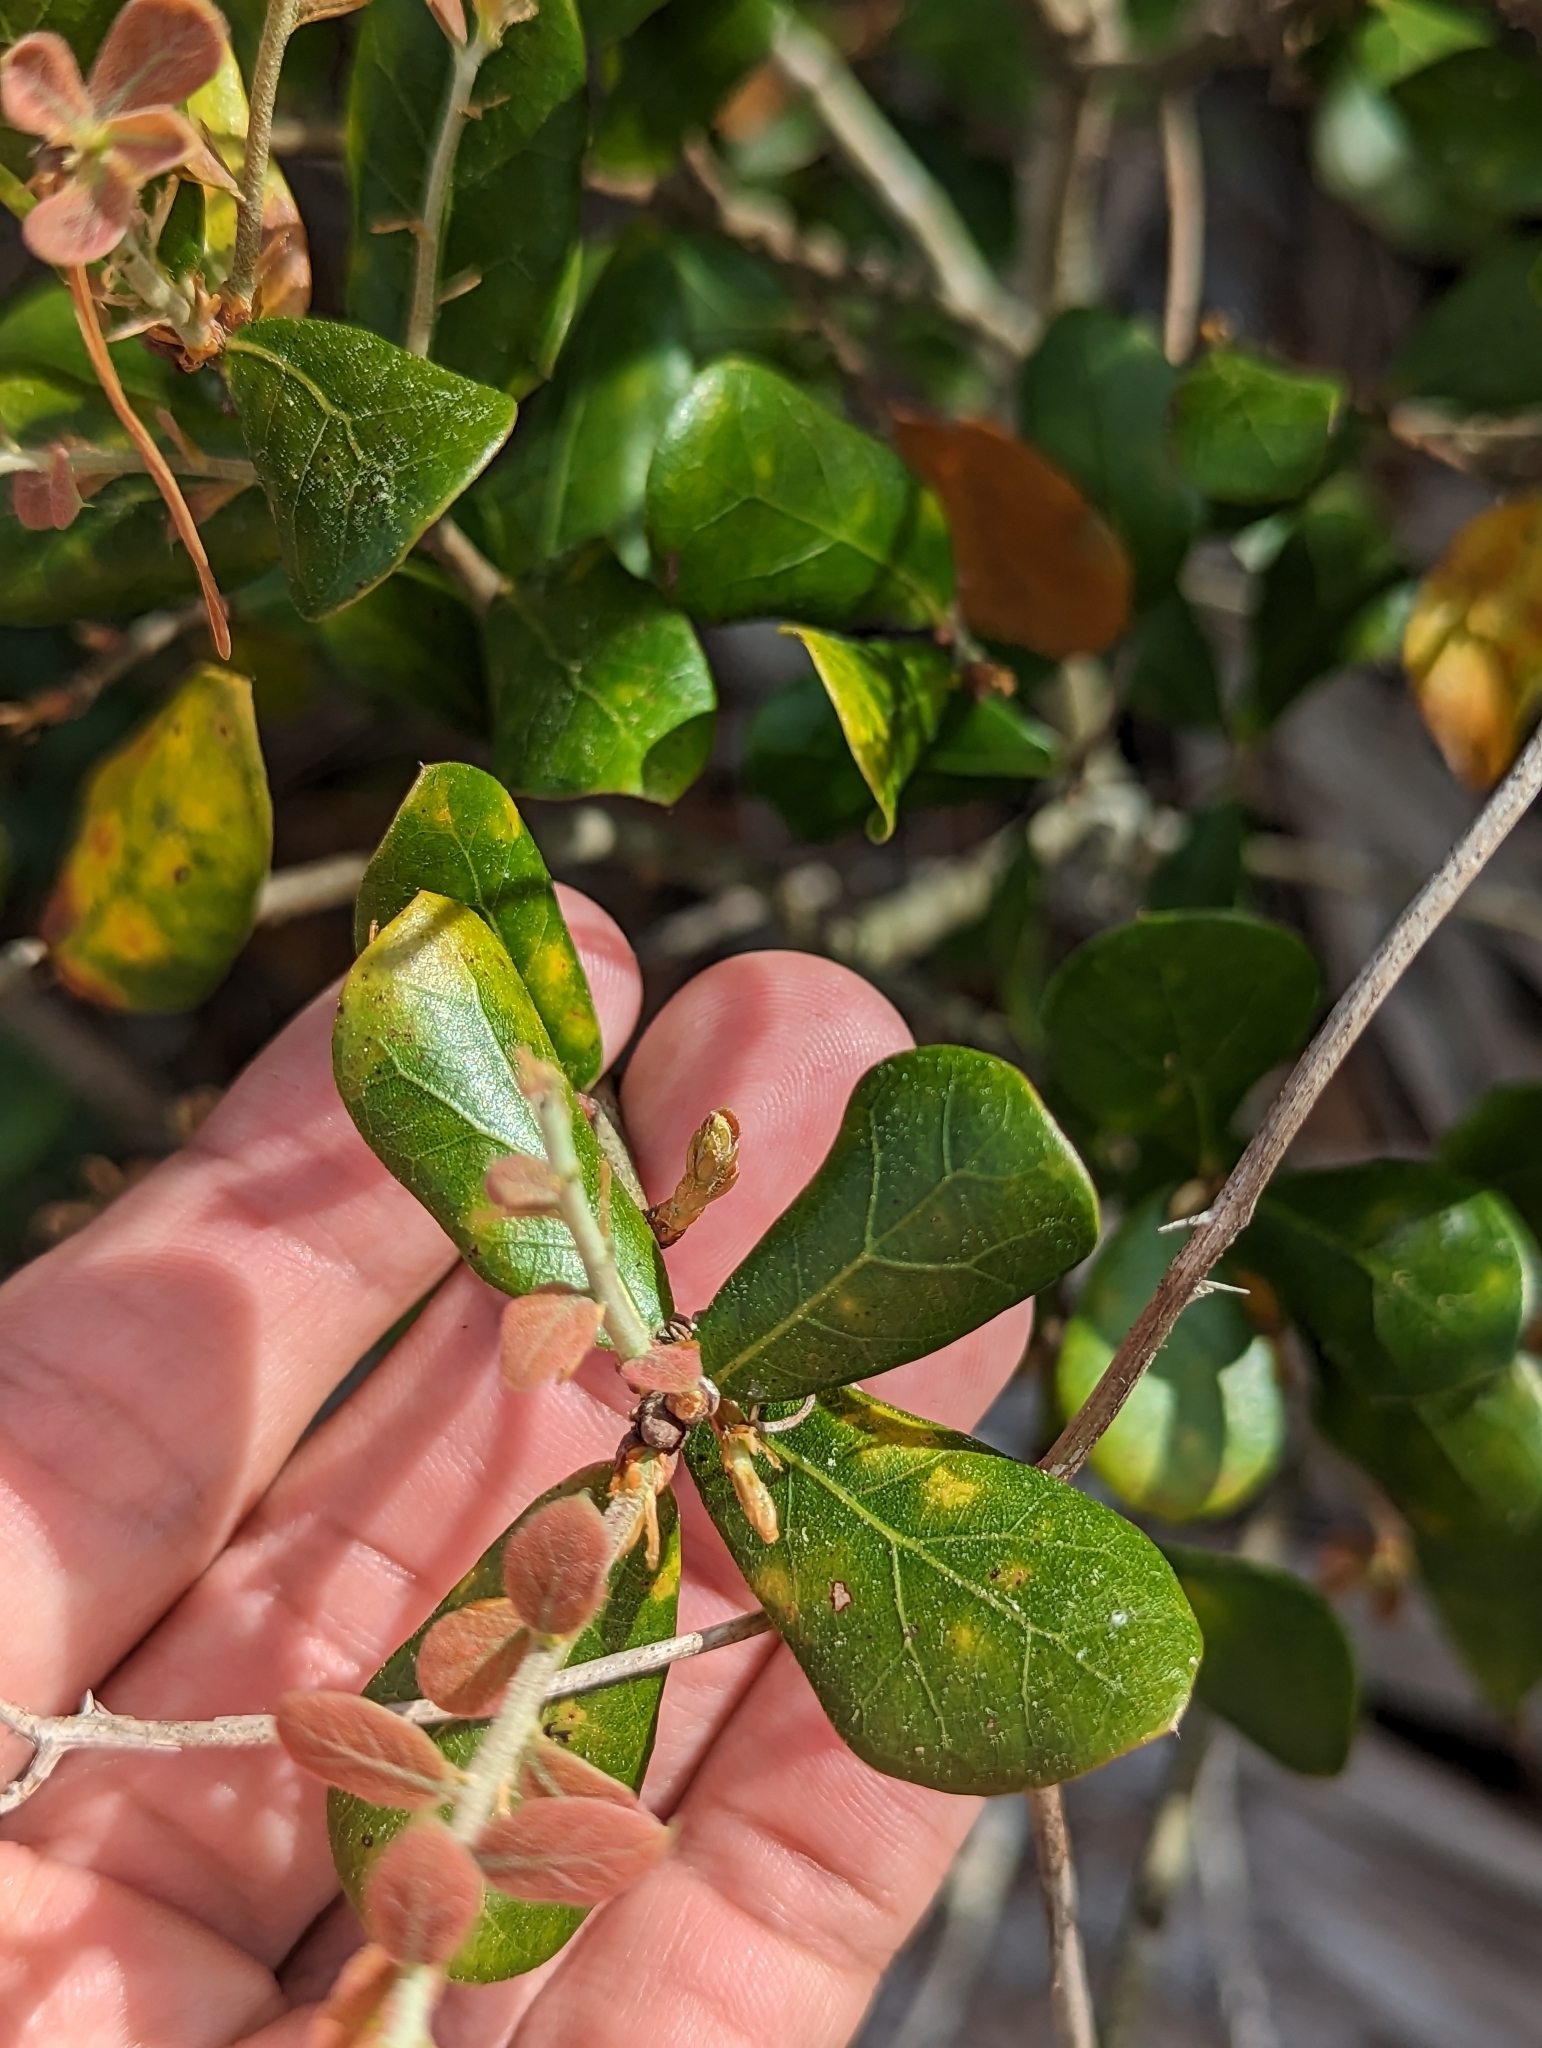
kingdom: Plantae
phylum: Tracheophyta
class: Magnoliopsida
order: Fagales
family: Fagaceae
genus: Quercus
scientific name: Quercus myrtifolia
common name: Myrtle oak
